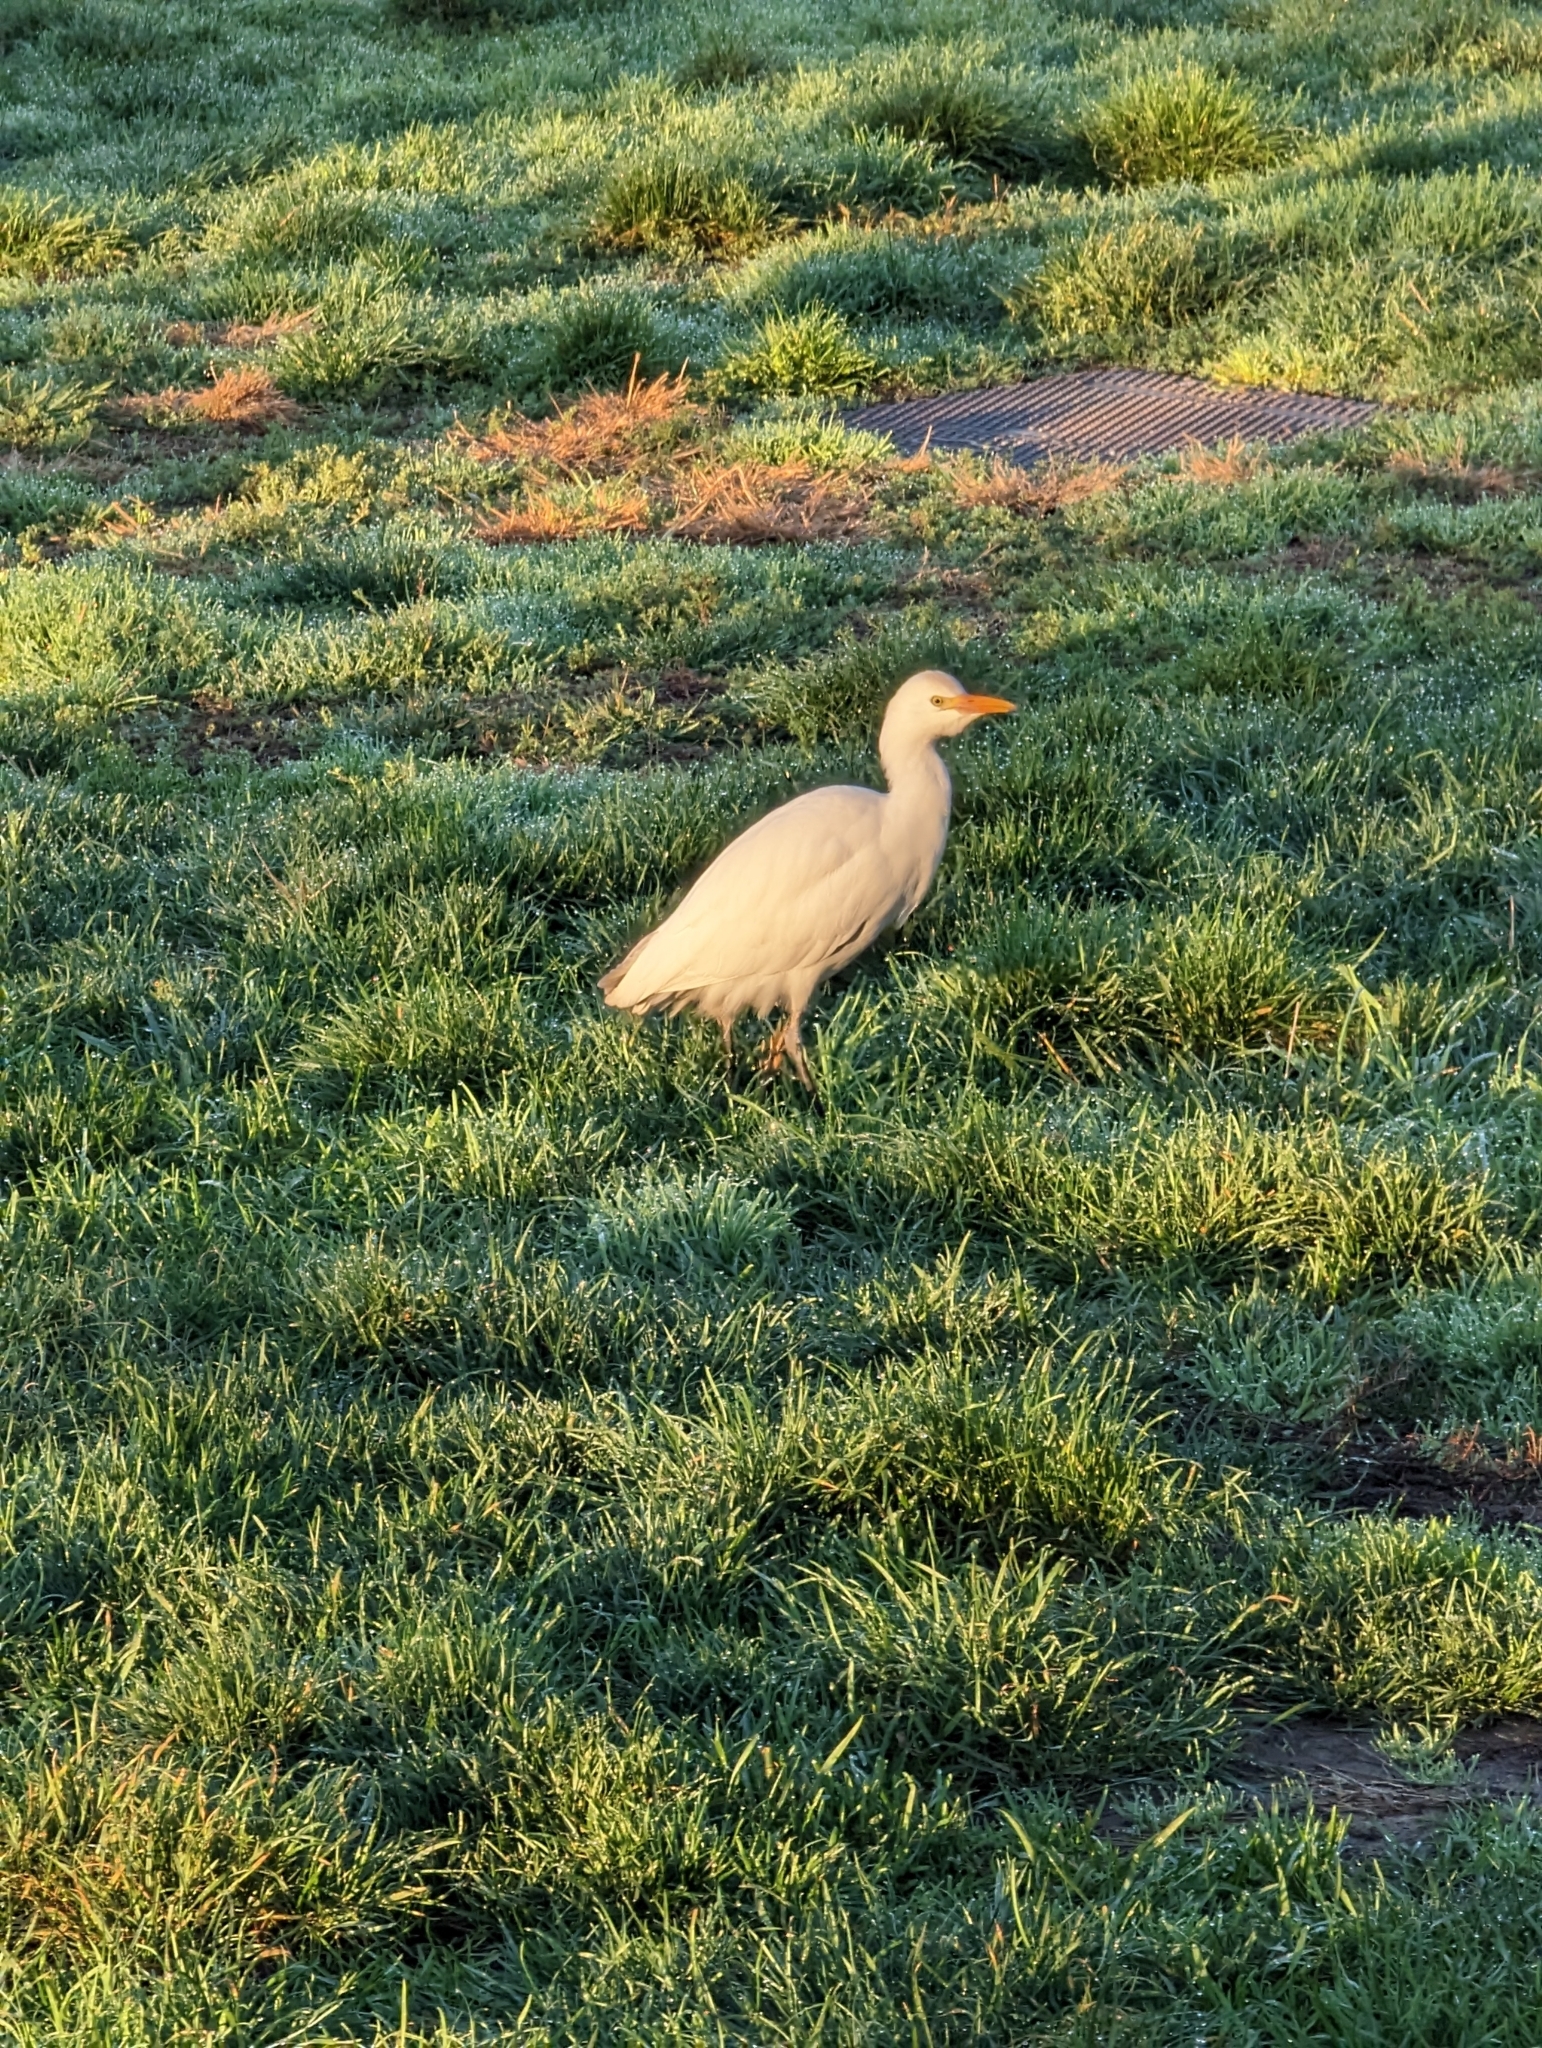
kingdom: Animalia
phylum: Chordata
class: Aves
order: Pelecaniformes
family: Ardeidae
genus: Bubulcus
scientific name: Bubulcus ibis
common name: Cattle egret
